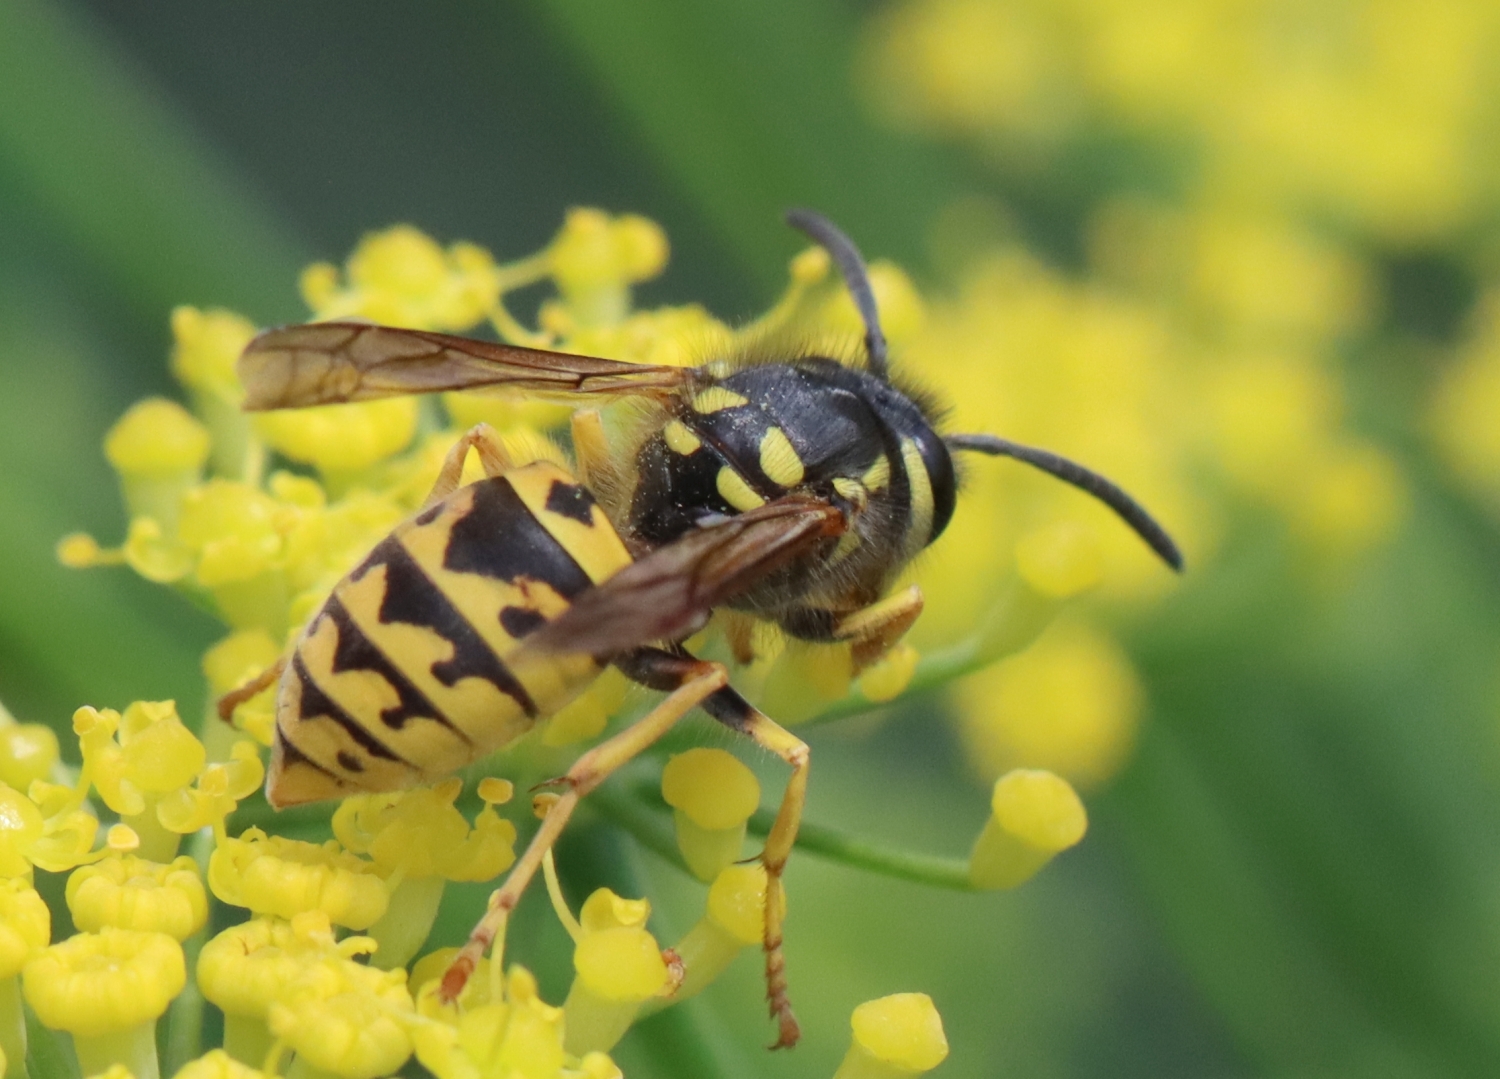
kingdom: Animalia
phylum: Arthropoda
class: Insecta
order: Hymenoptera
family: Vespidae
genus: Vespula
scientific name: Vespula germanica
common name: German wasp
